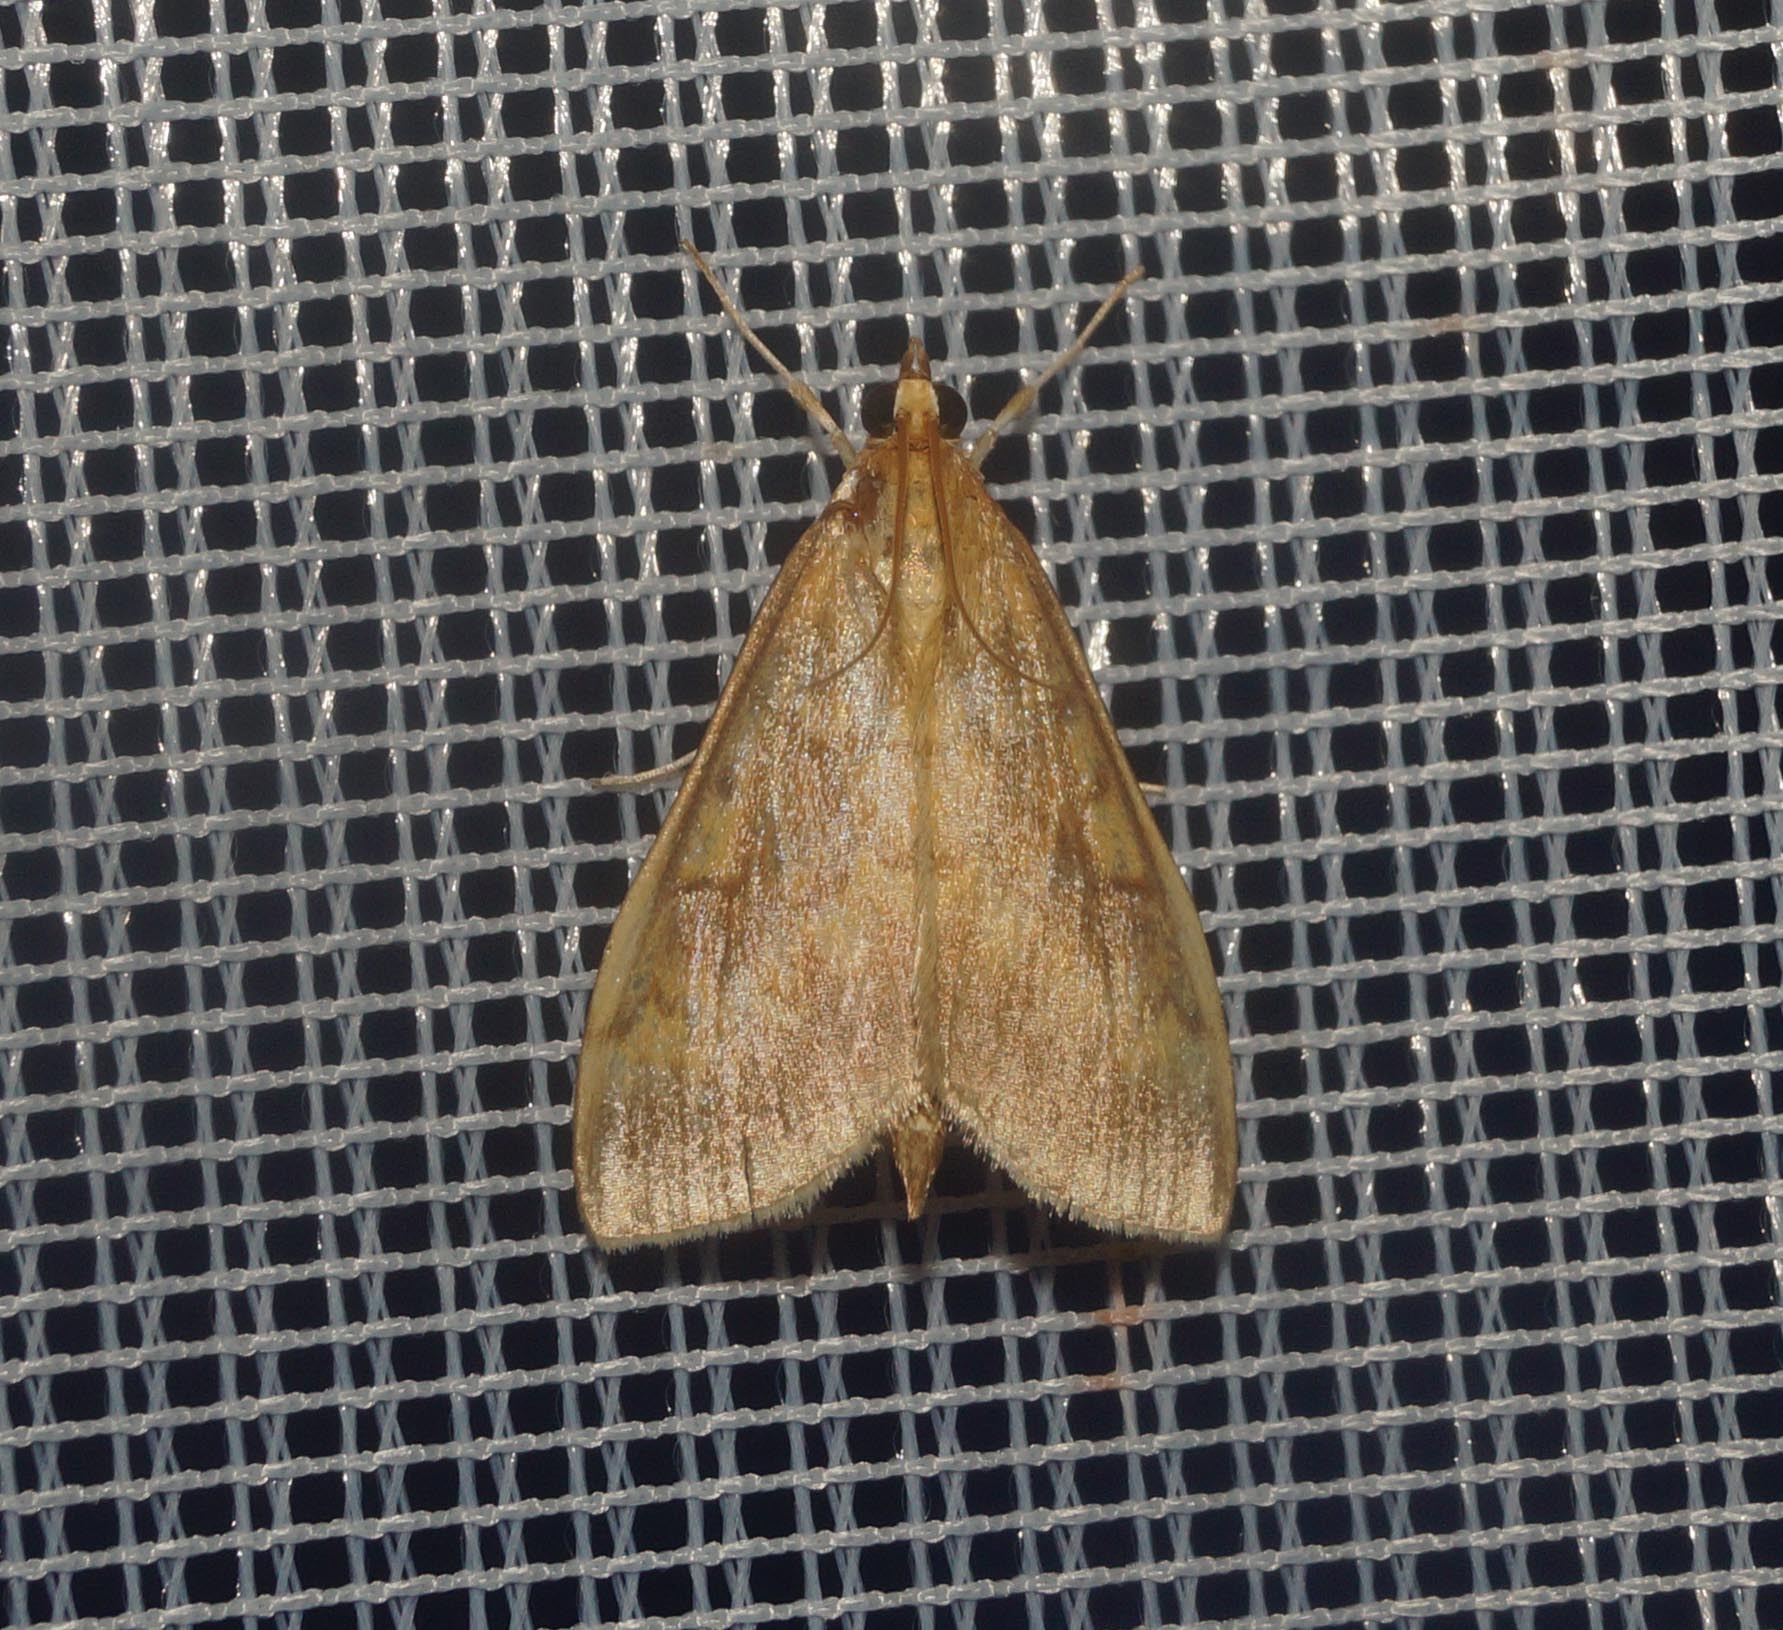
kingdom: Animalia
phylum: Arthropoda
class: Insecta
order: Lepidoptera
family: Crambidae
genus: Ostrinia
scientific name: Ostrinia nubilalis
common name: European corn borer
